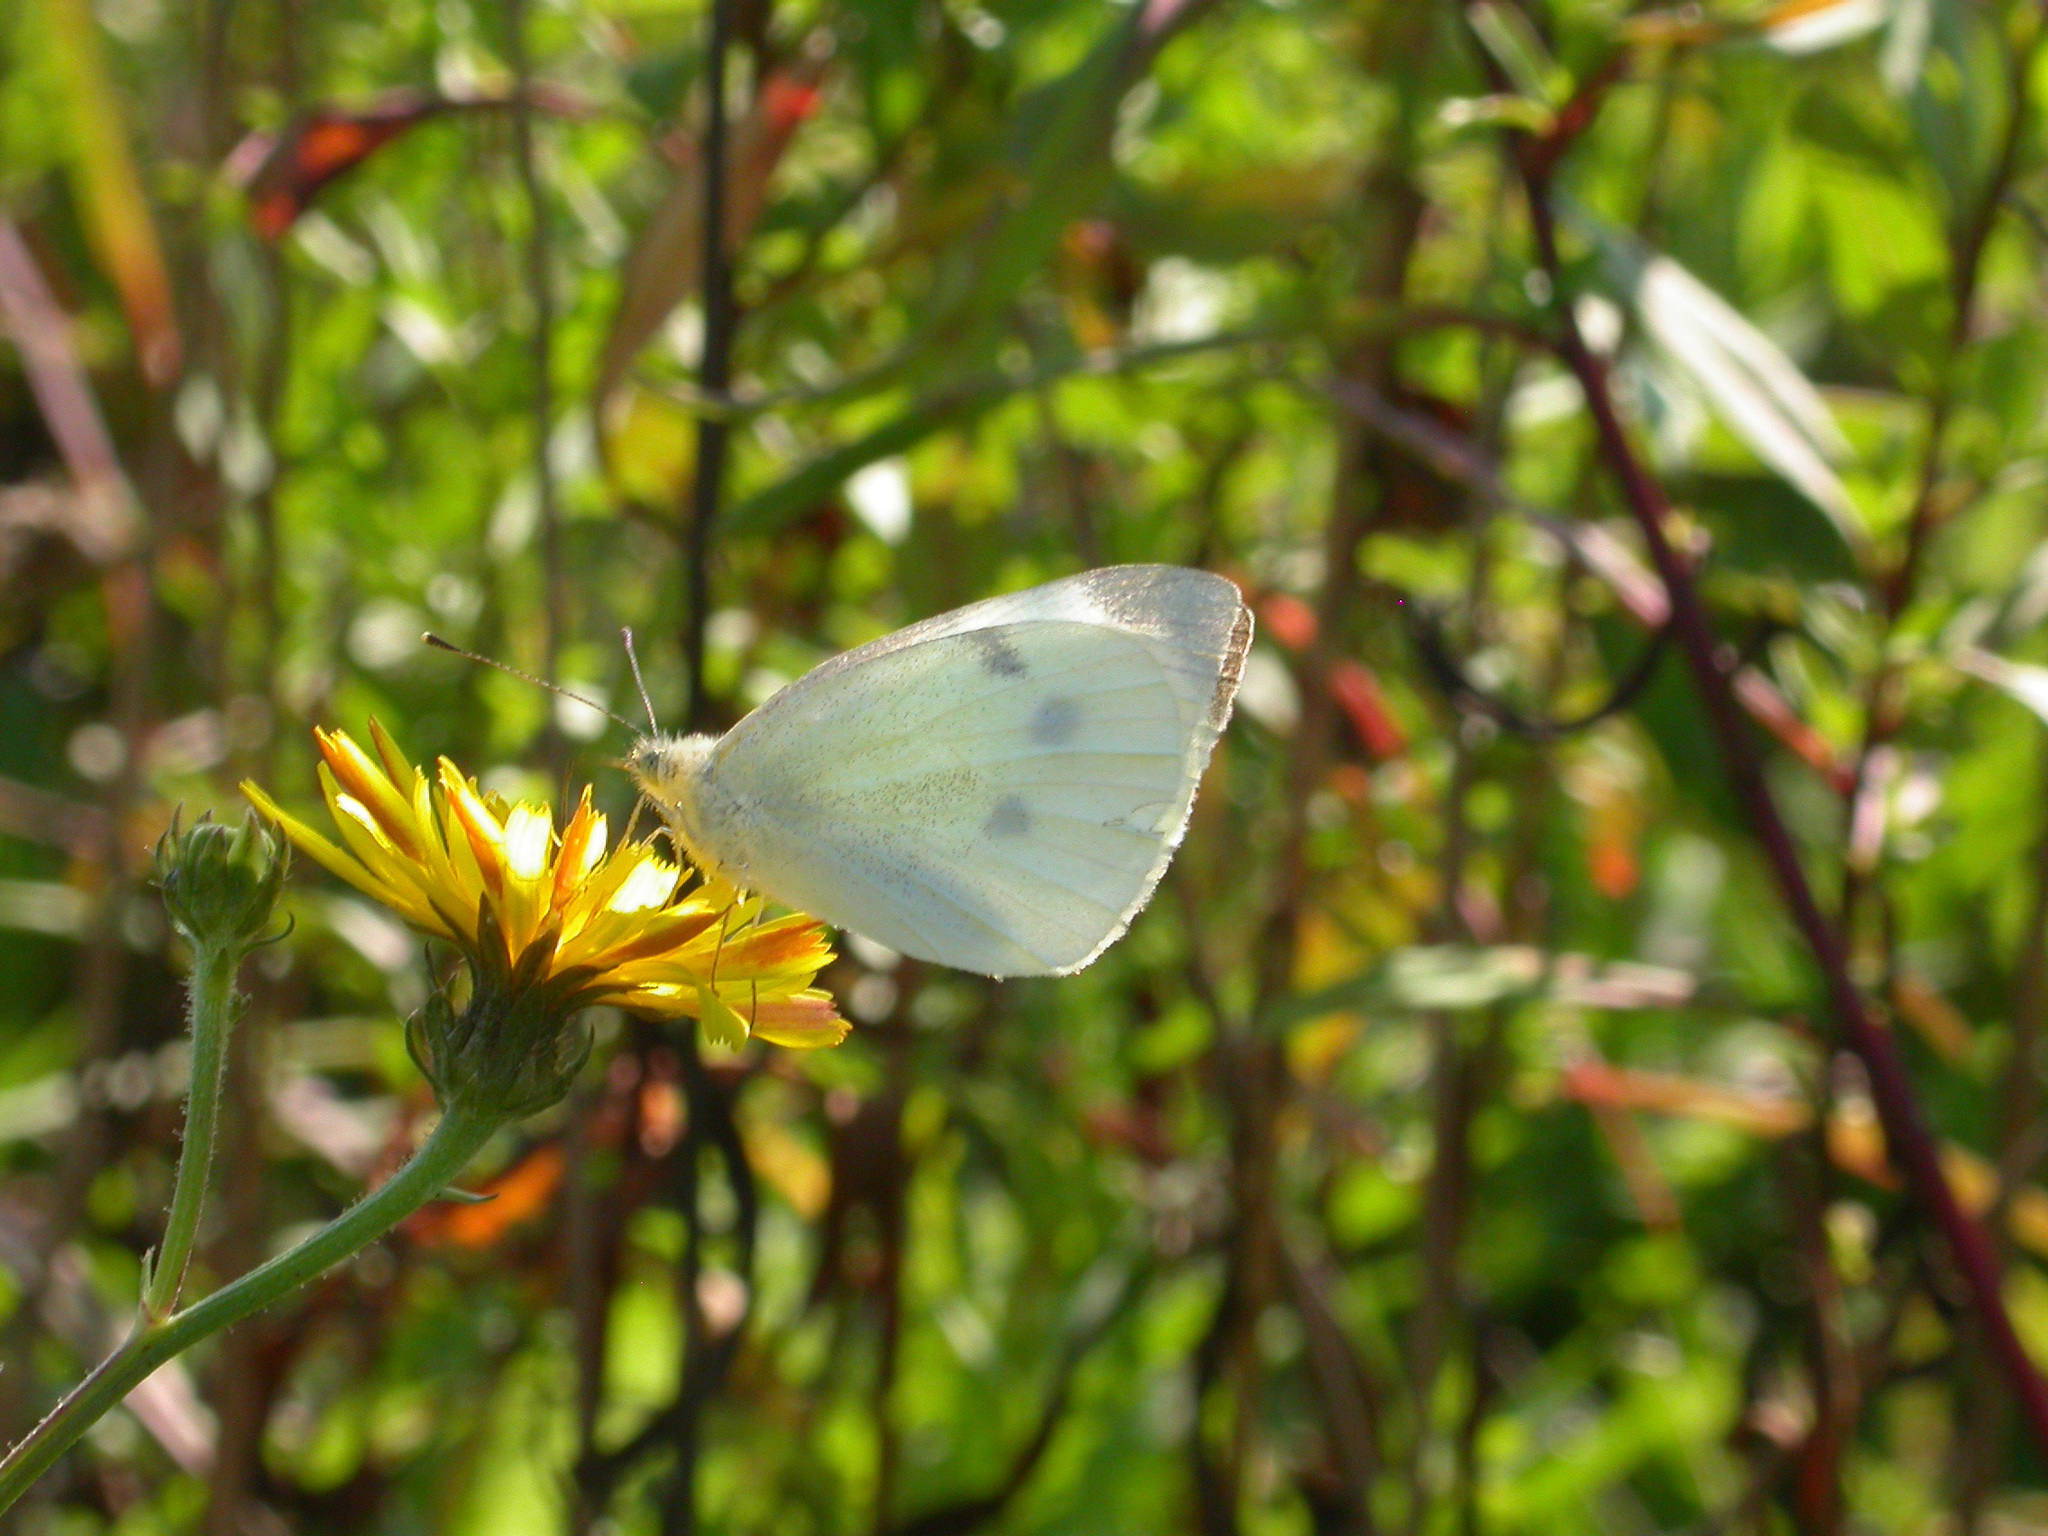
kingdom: Animalia
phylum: Arthropoda
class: Insecta
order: Lepidoptera
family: Pieridae
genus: Pieris
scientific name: Pieris rapae
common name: Small white
